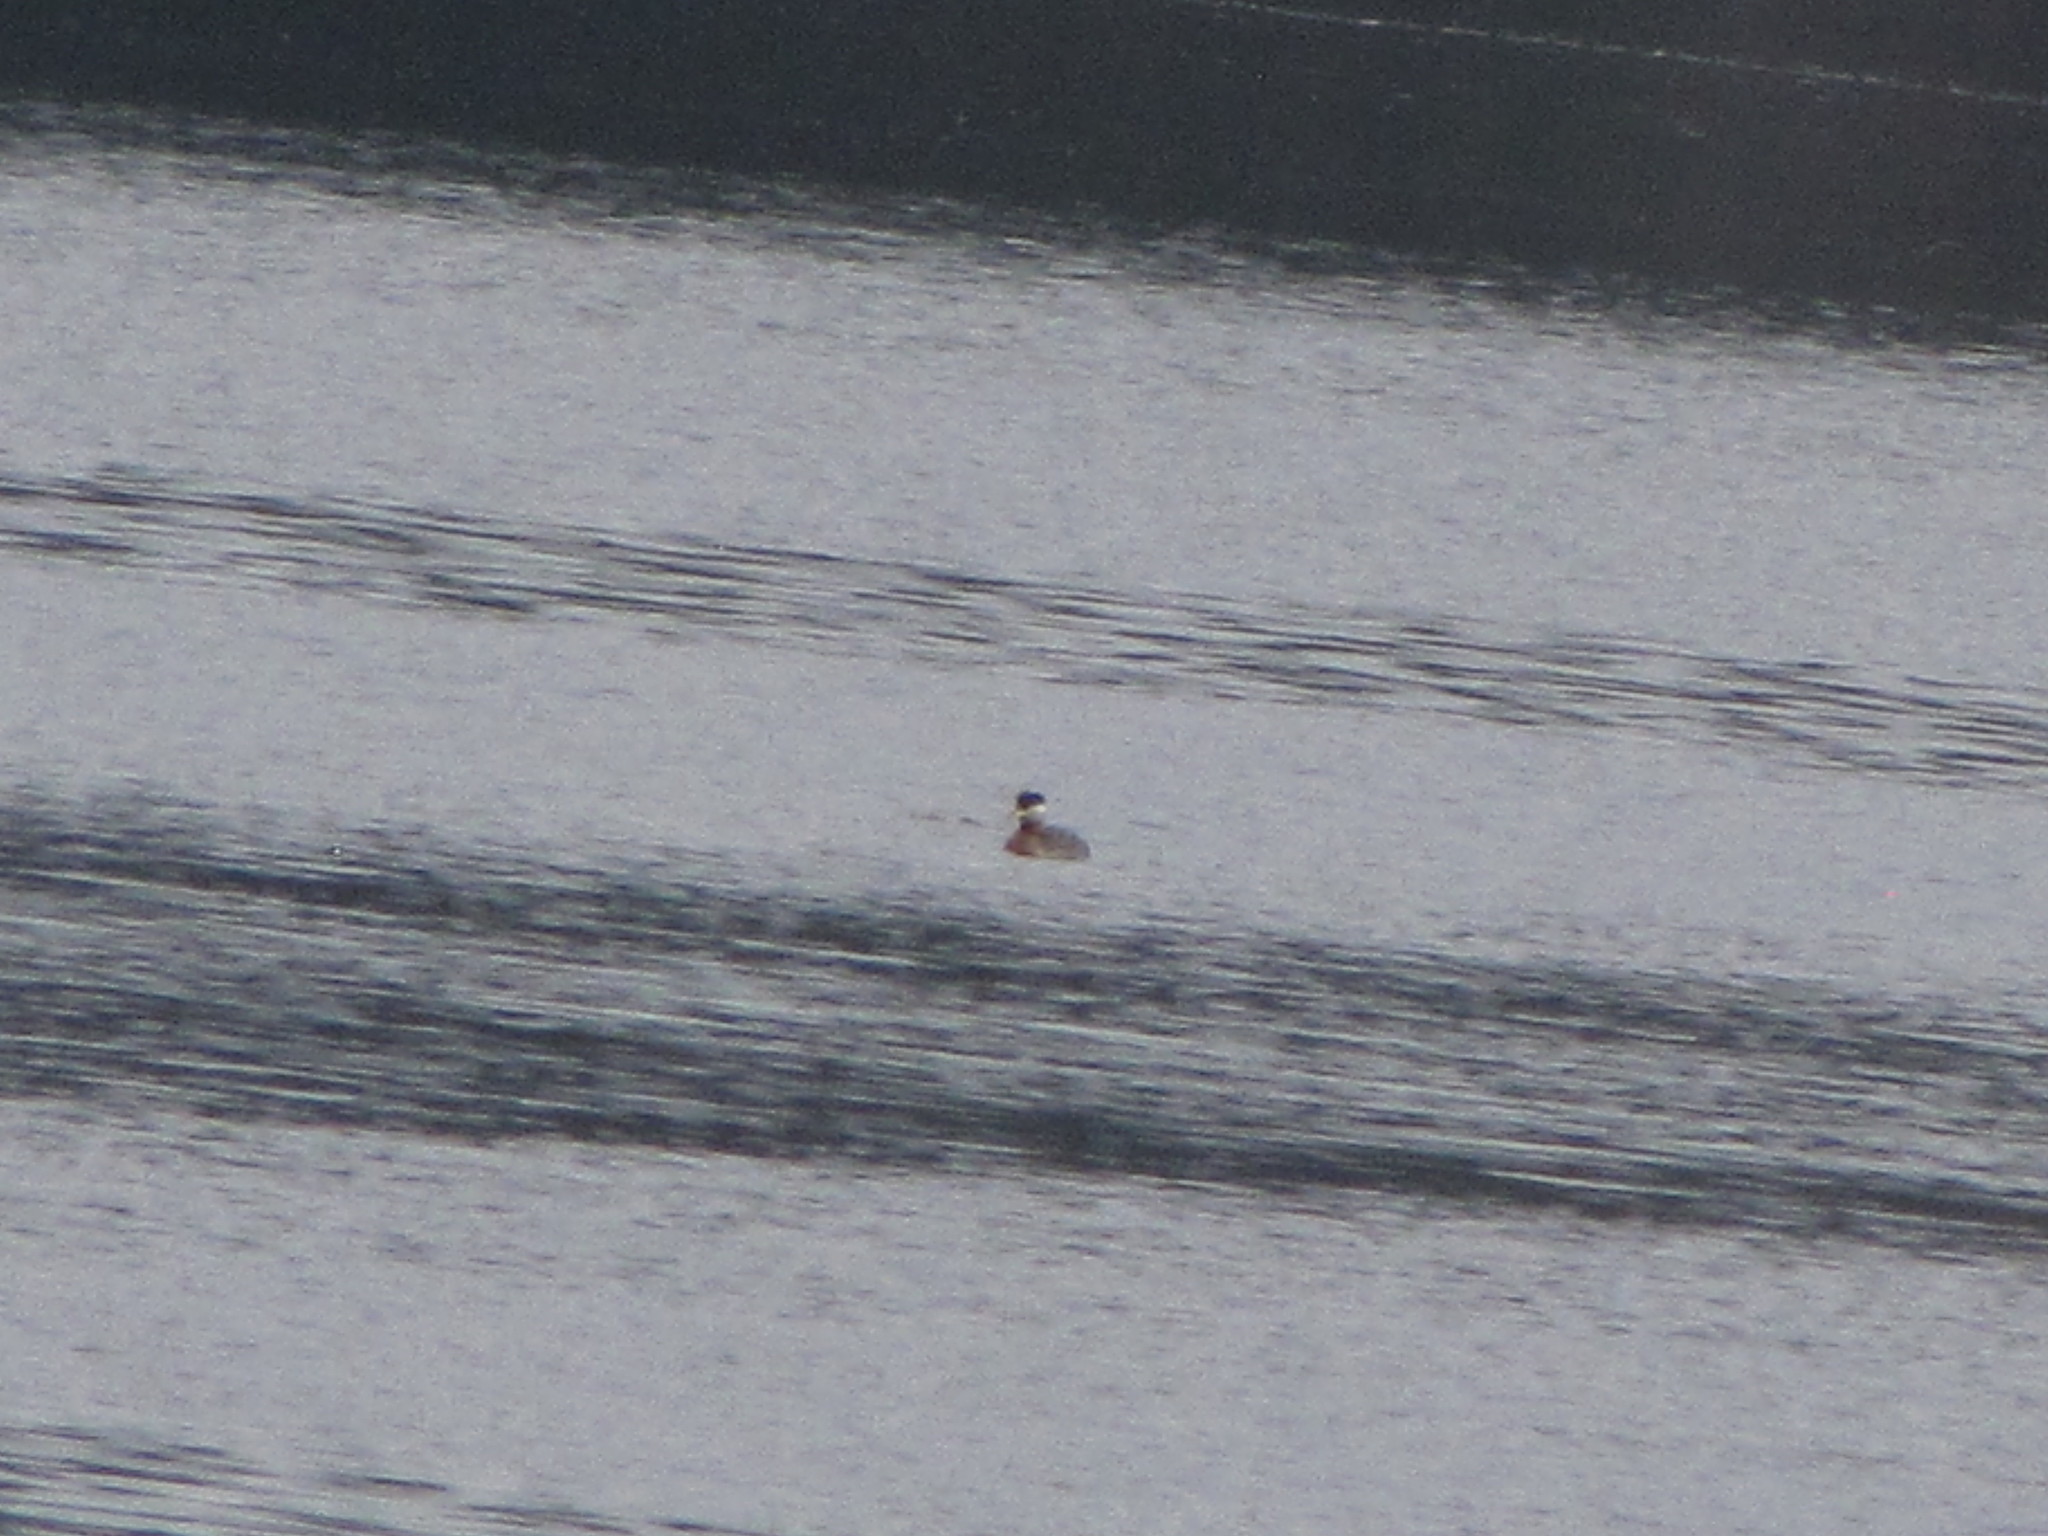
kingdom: Animalia
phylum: Chordata
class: Aves
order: Podicipediformes
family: Podicipedidae
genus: Podiceps
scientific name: Podiceps grisegena
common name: Red-necked grebe
